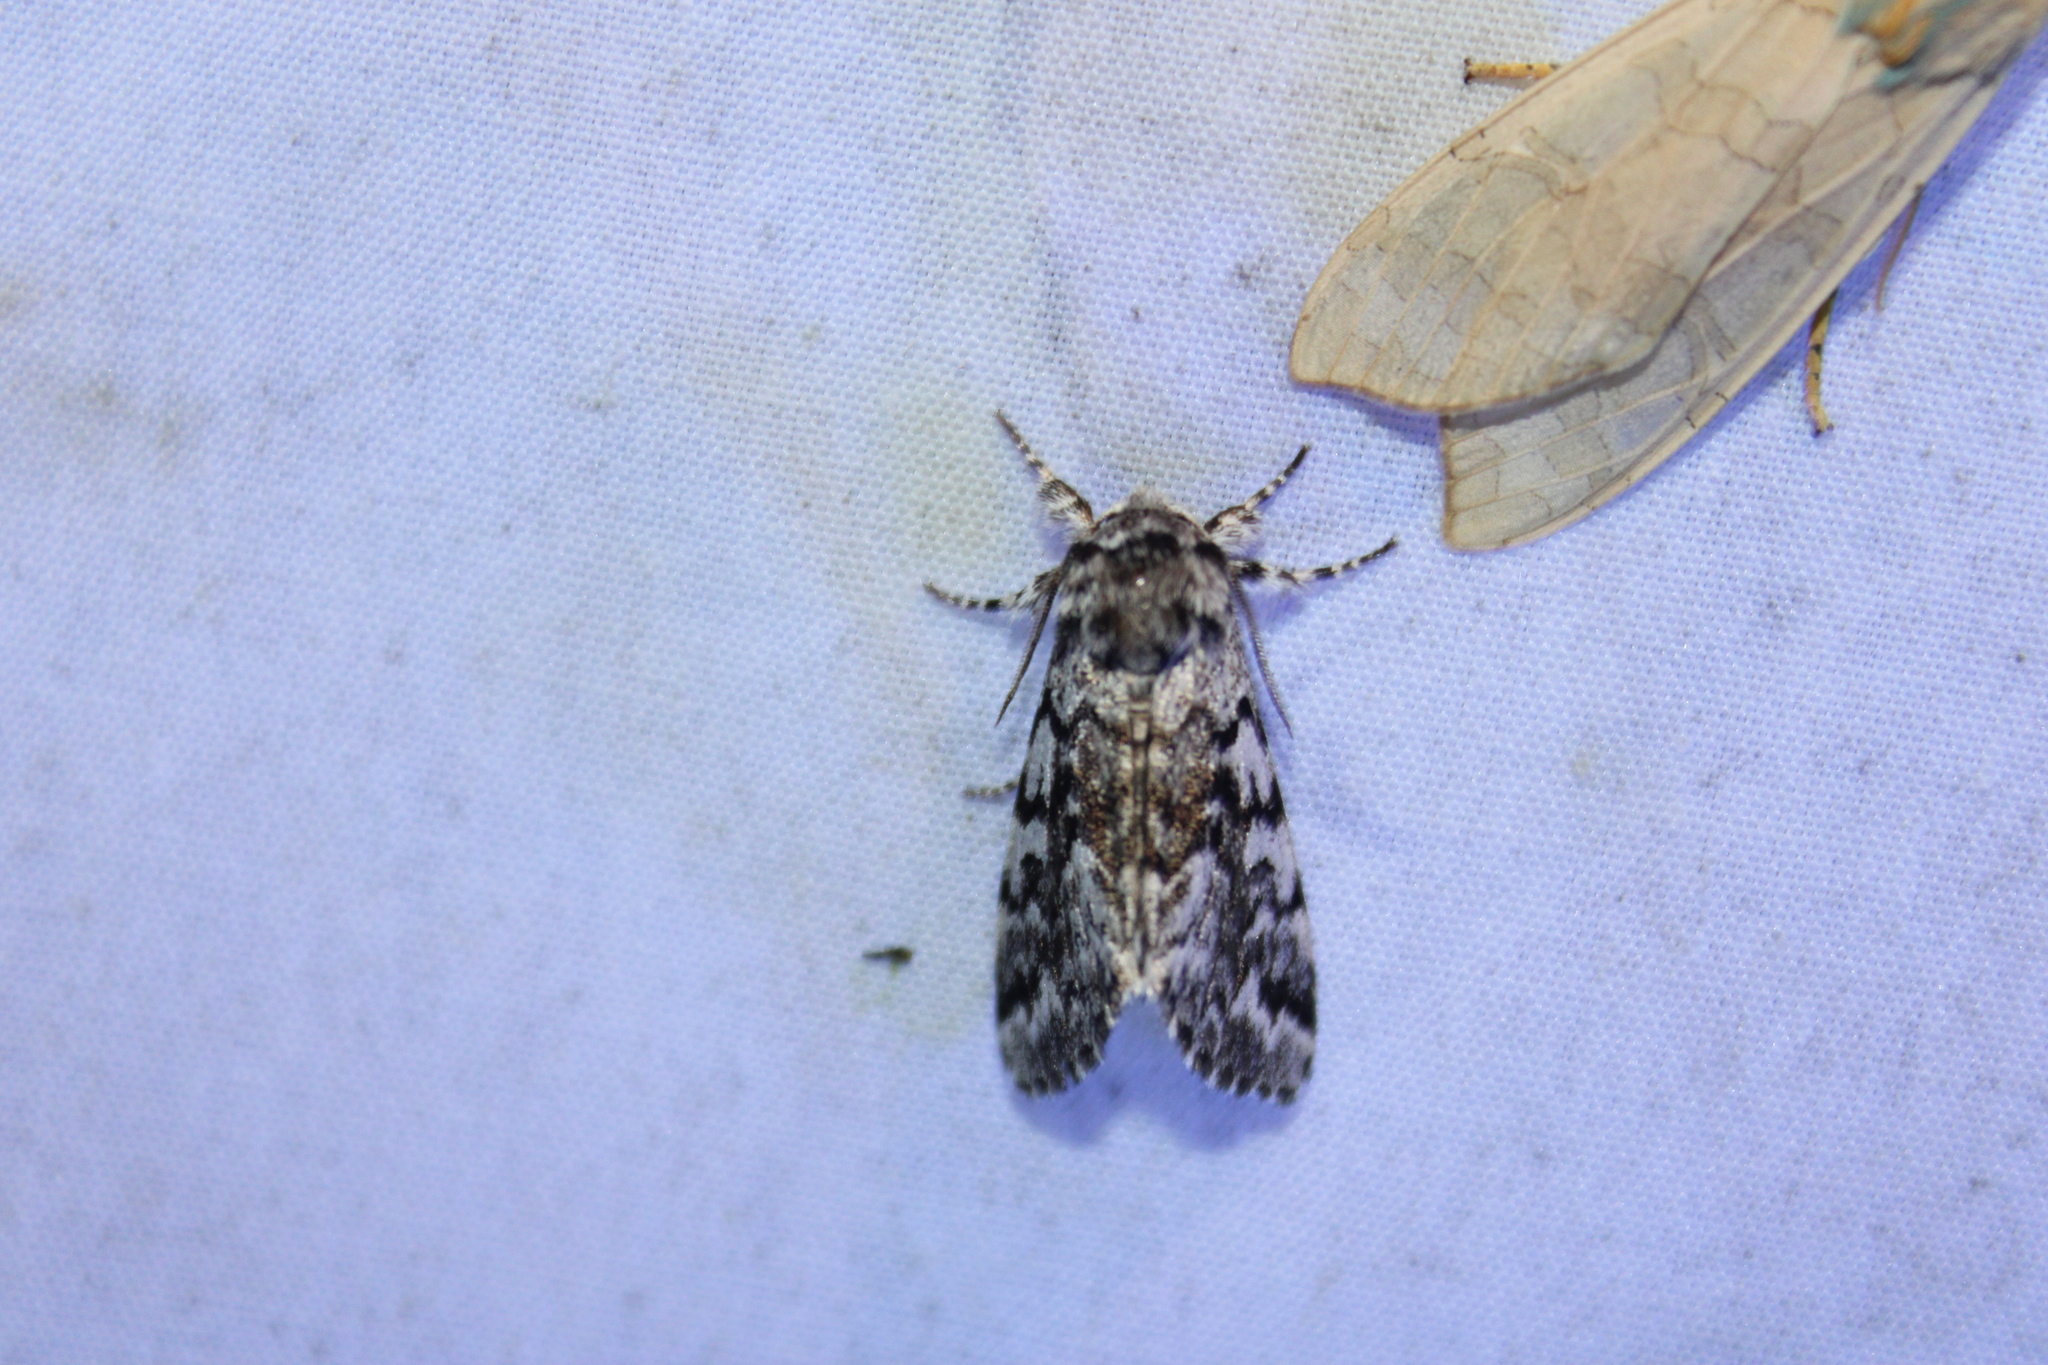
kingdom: Animalia
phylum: Arthropoda
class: Insecta
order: Lepidoptera
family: Noctuidae
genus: Panthea
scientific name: Panthea acronyctoides
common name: Black zigzag moth
